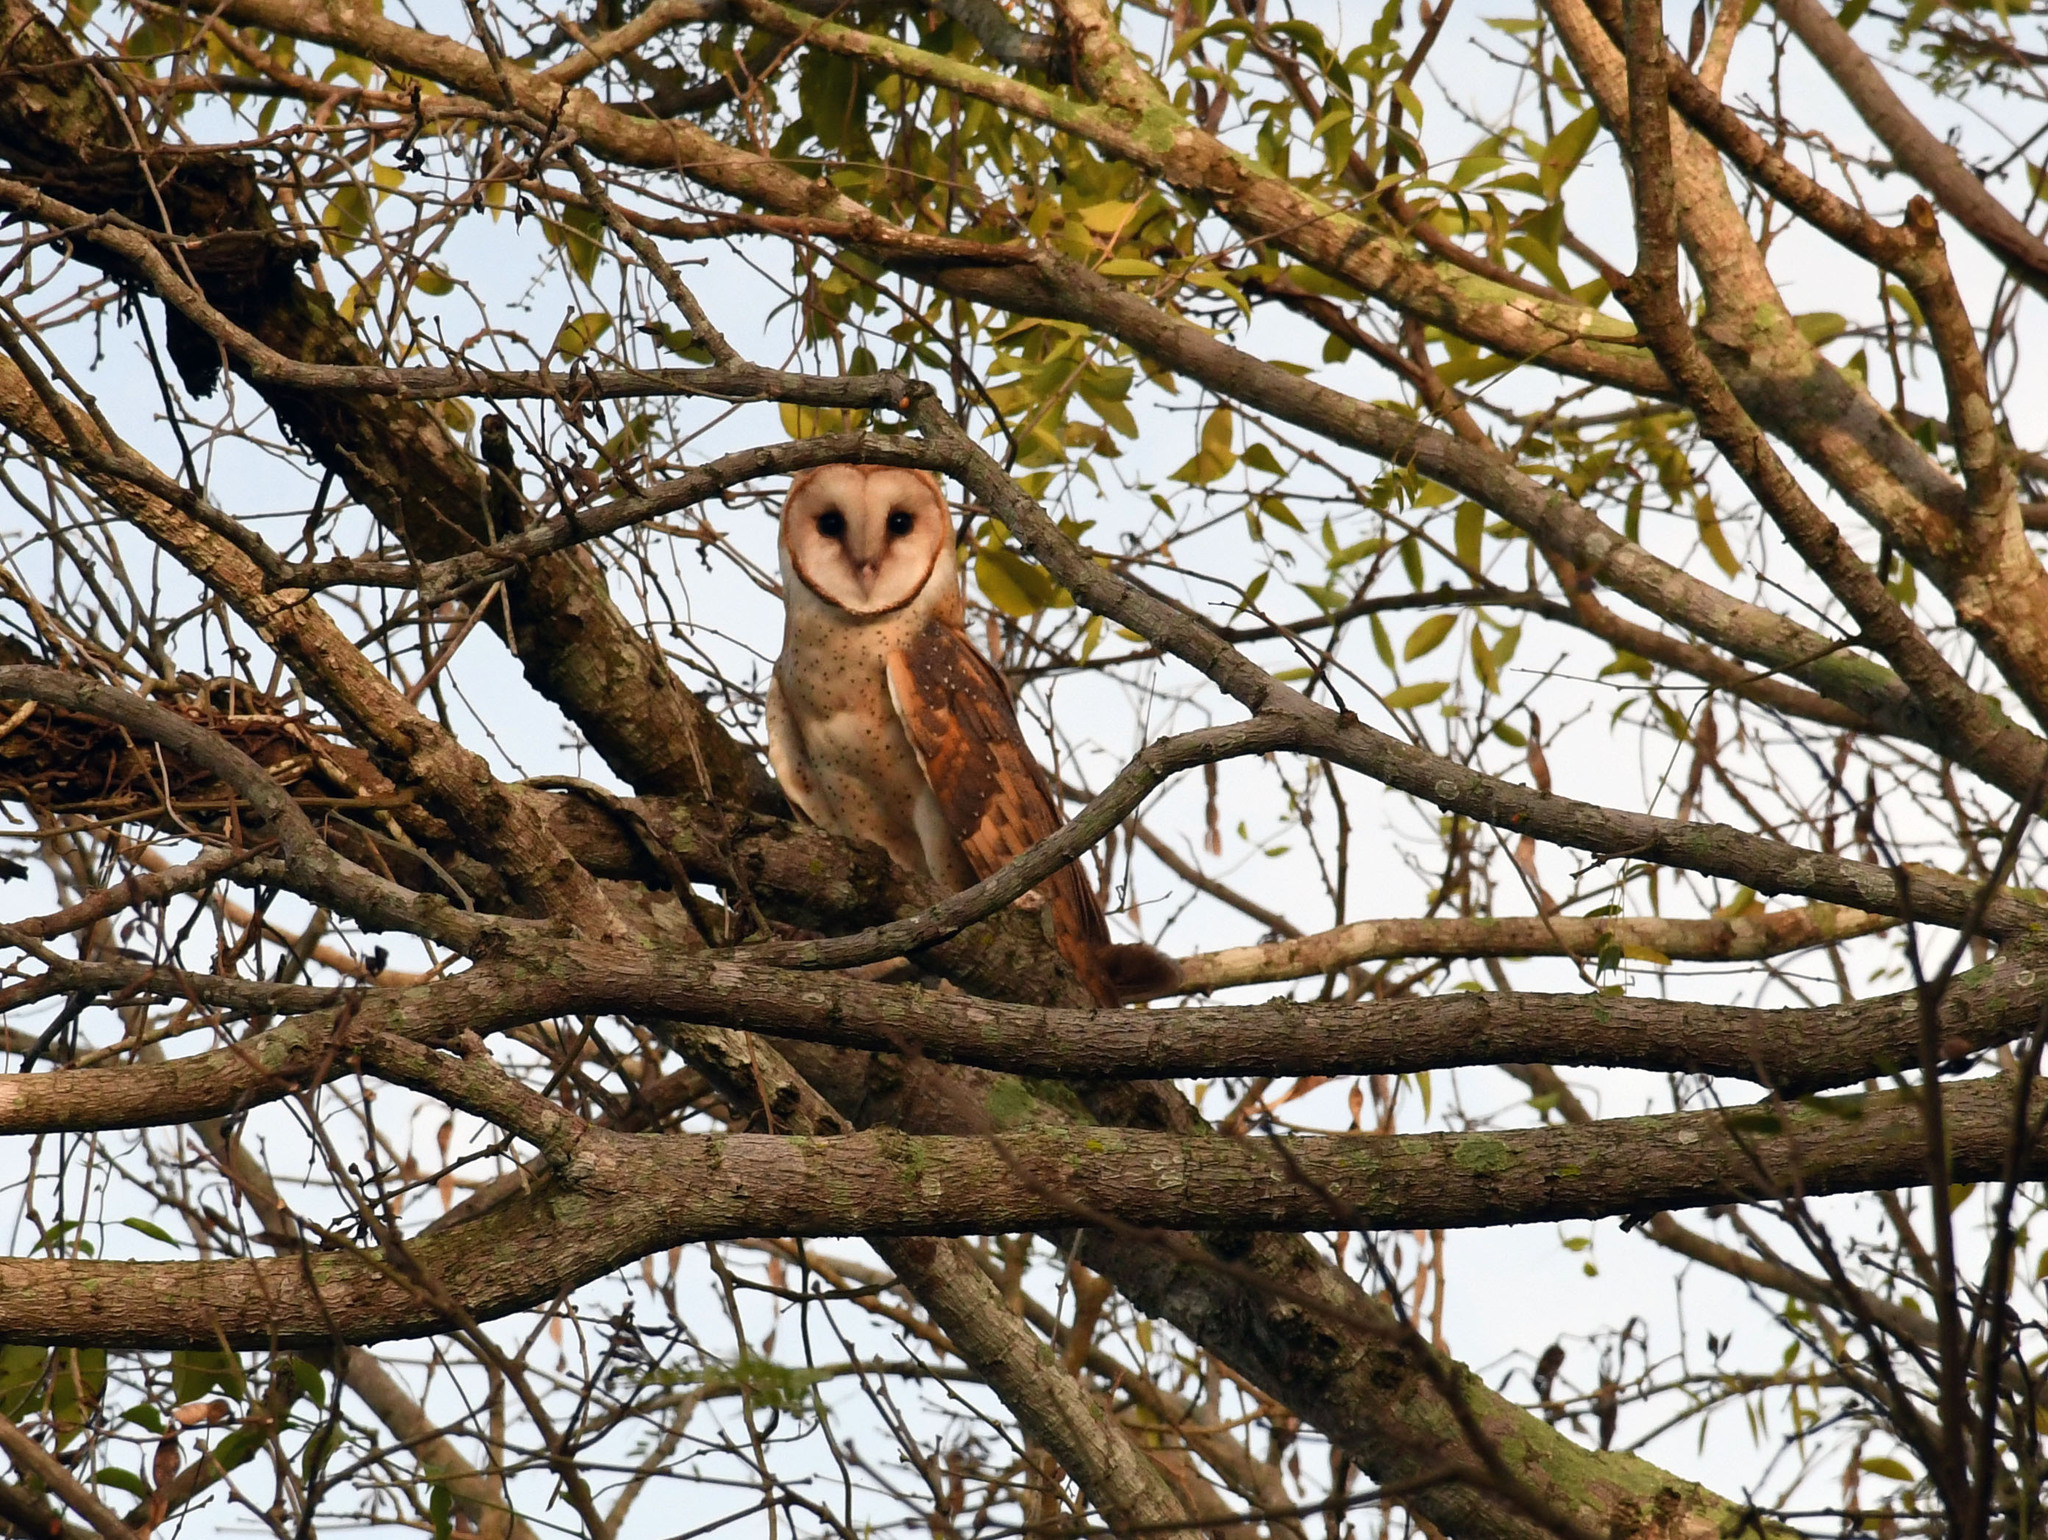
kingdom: Animalia
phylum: Chordata
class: Aves
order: Strigiformes
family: Tytonidae
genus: Tyto
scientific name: Tyto alba
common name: Barn owl
